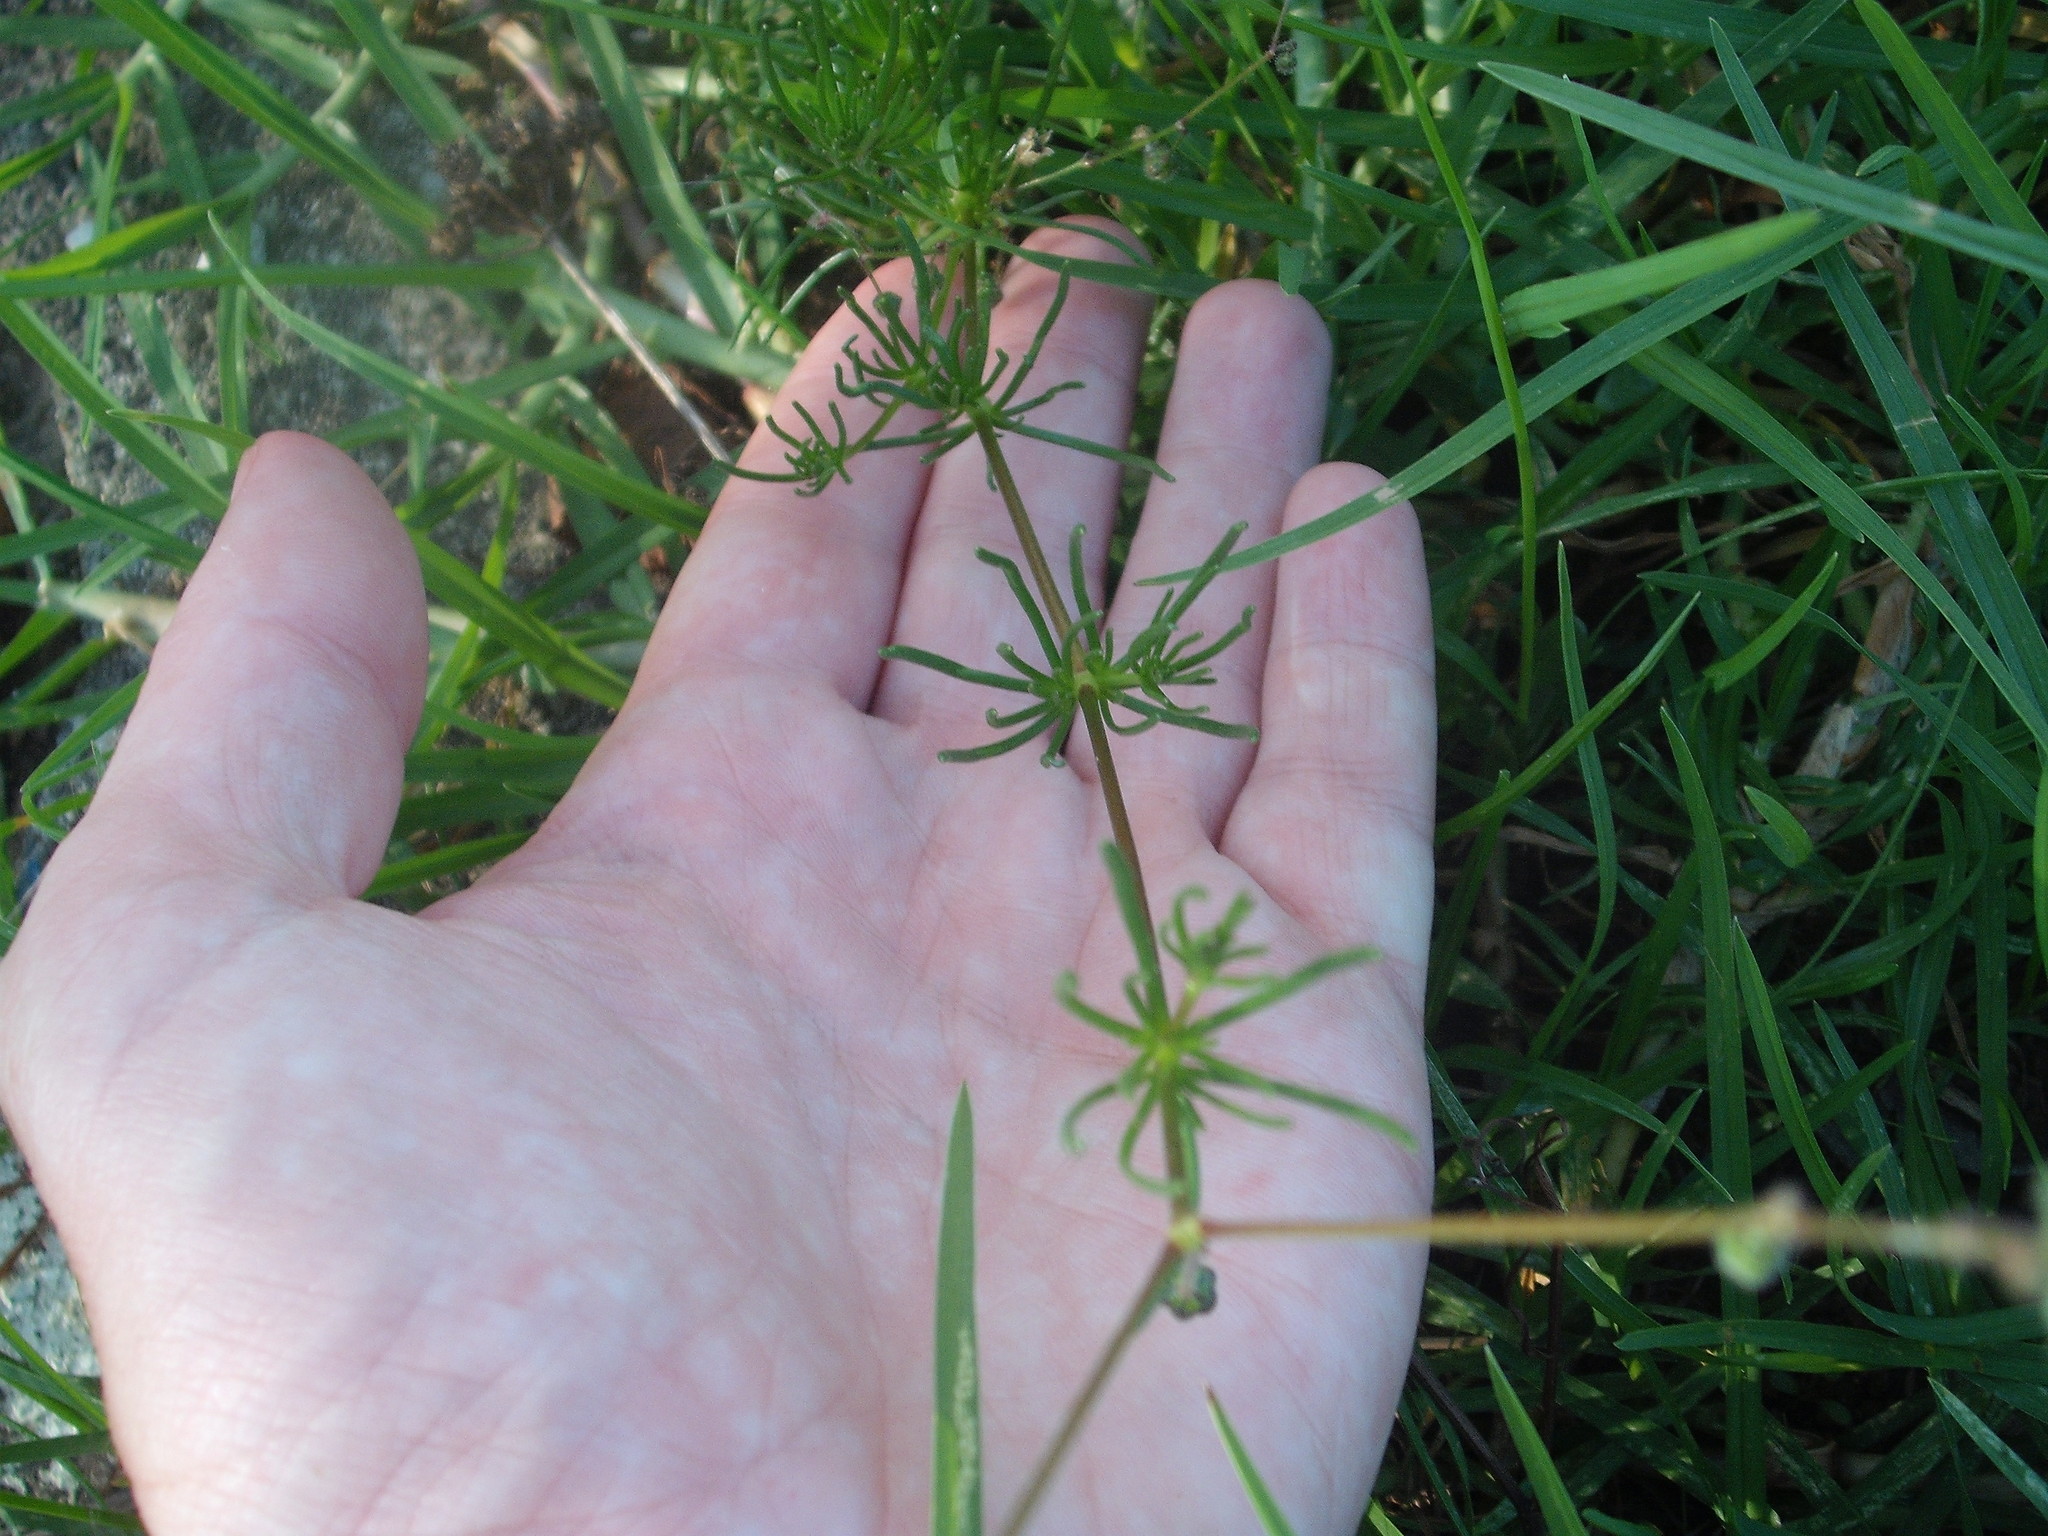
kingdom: Plantae
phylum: Tracheophyta
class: Magnoliopsida
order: Caryophyllales
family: Caryophyllaceae
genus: Spergula
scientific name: Spergula arvensis
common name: Corn spurrey
